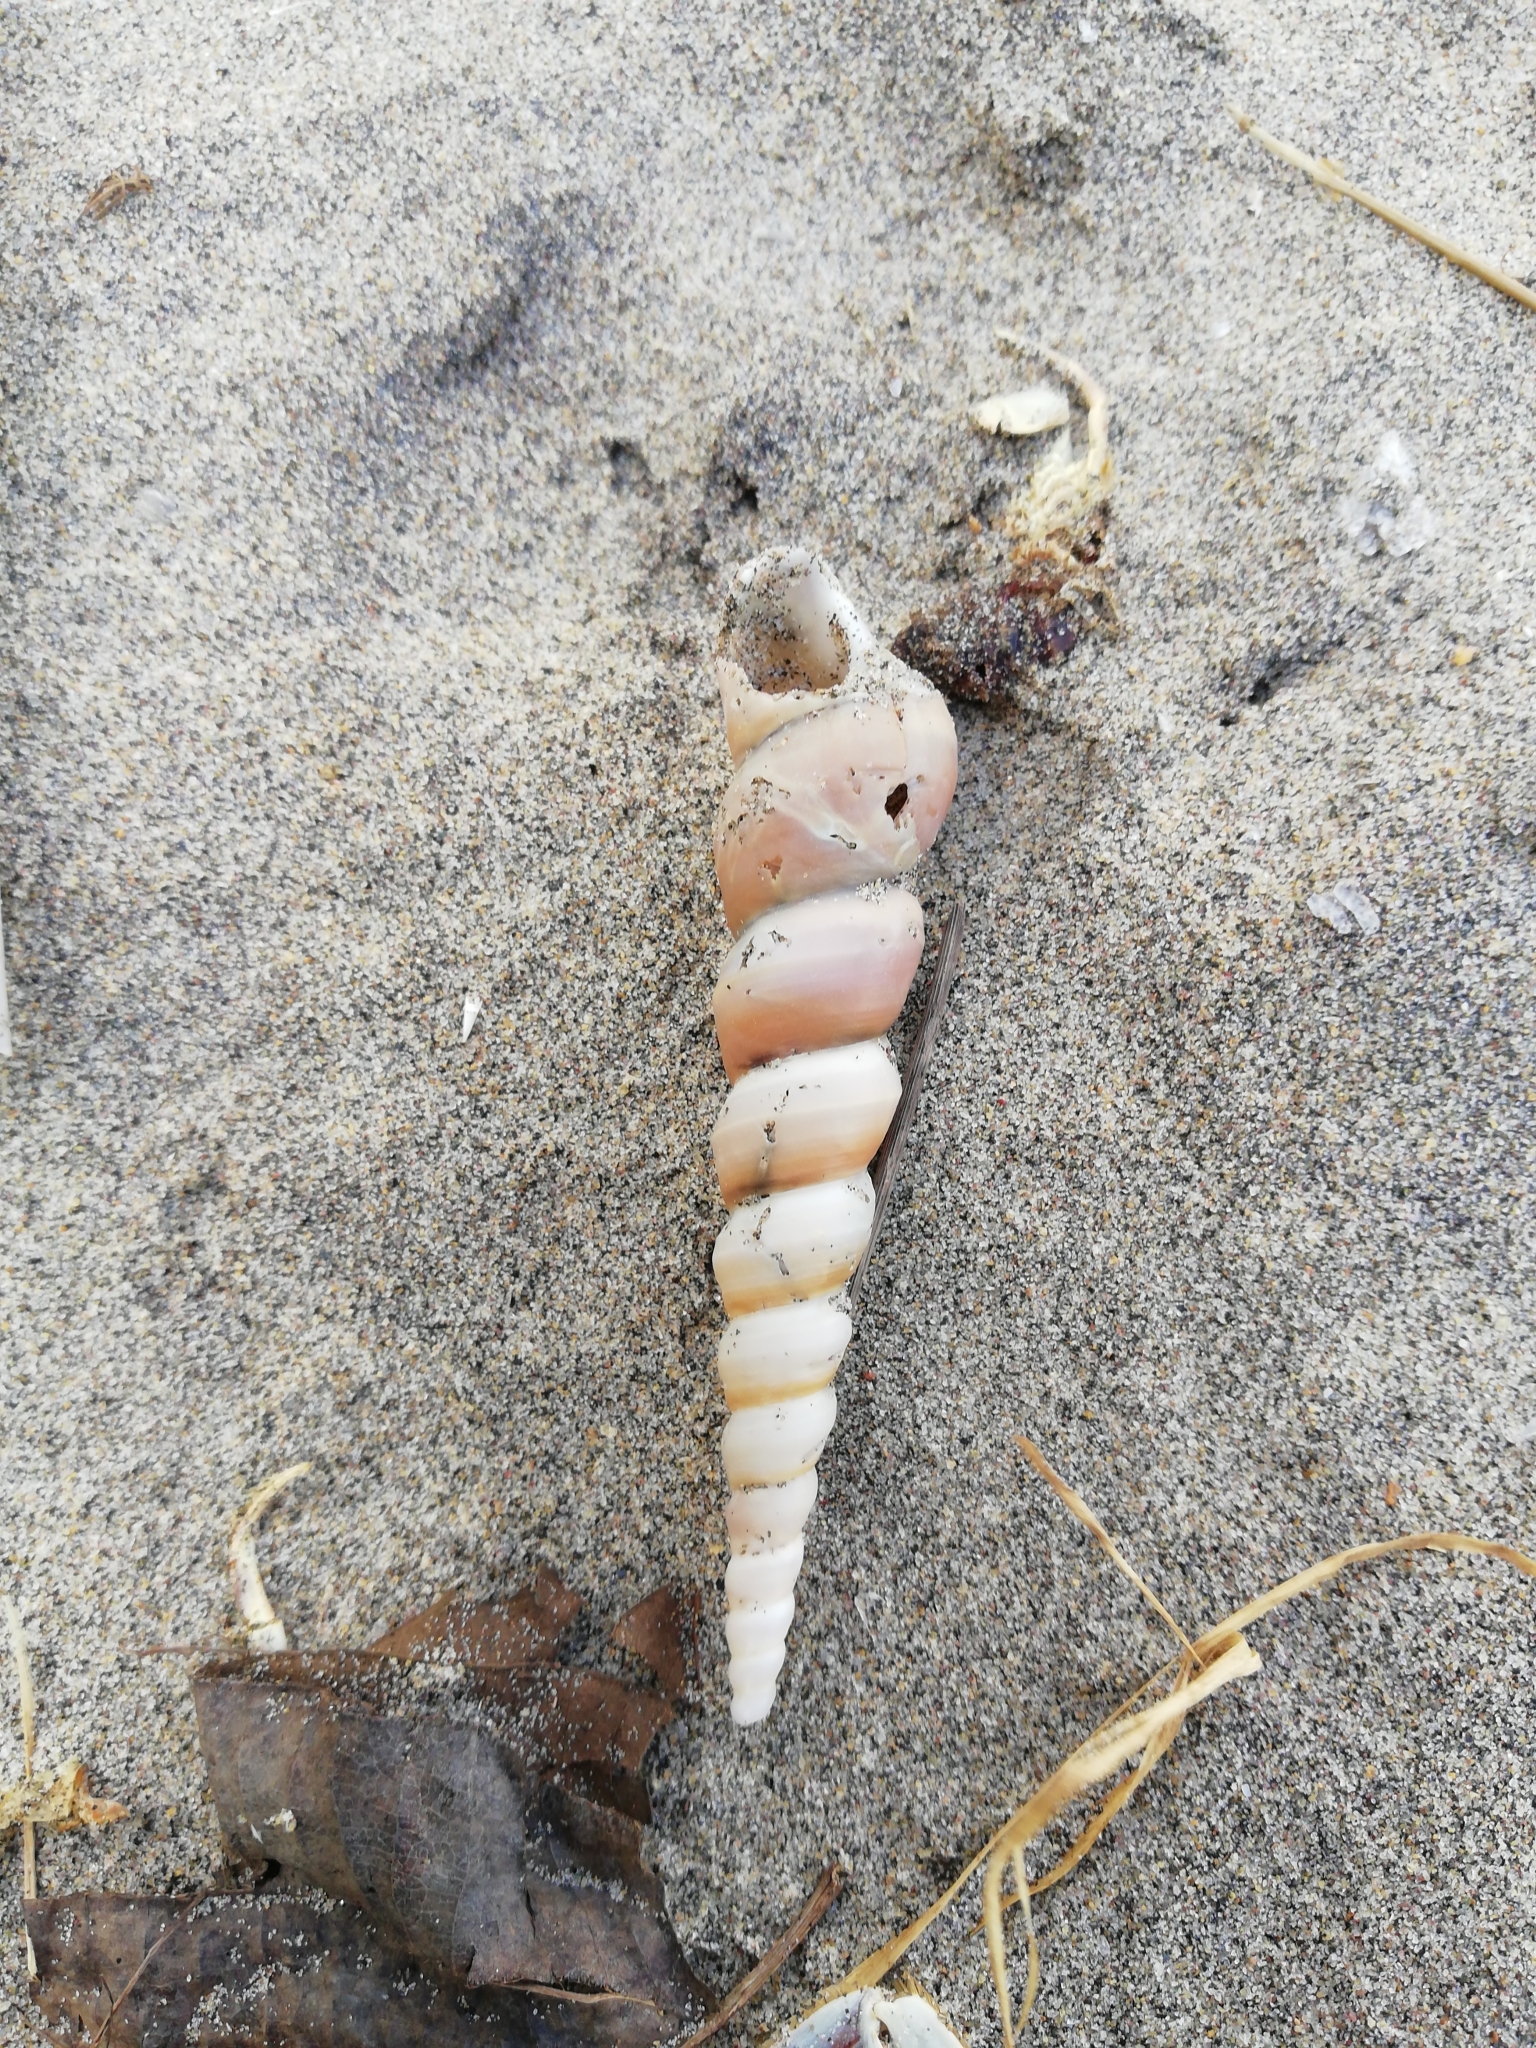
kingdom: Animalia
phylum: Mollusca
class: Gastropoda
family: Turritellidae
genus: Turritella
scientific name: Turritella terebra
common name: Auger screw shell
